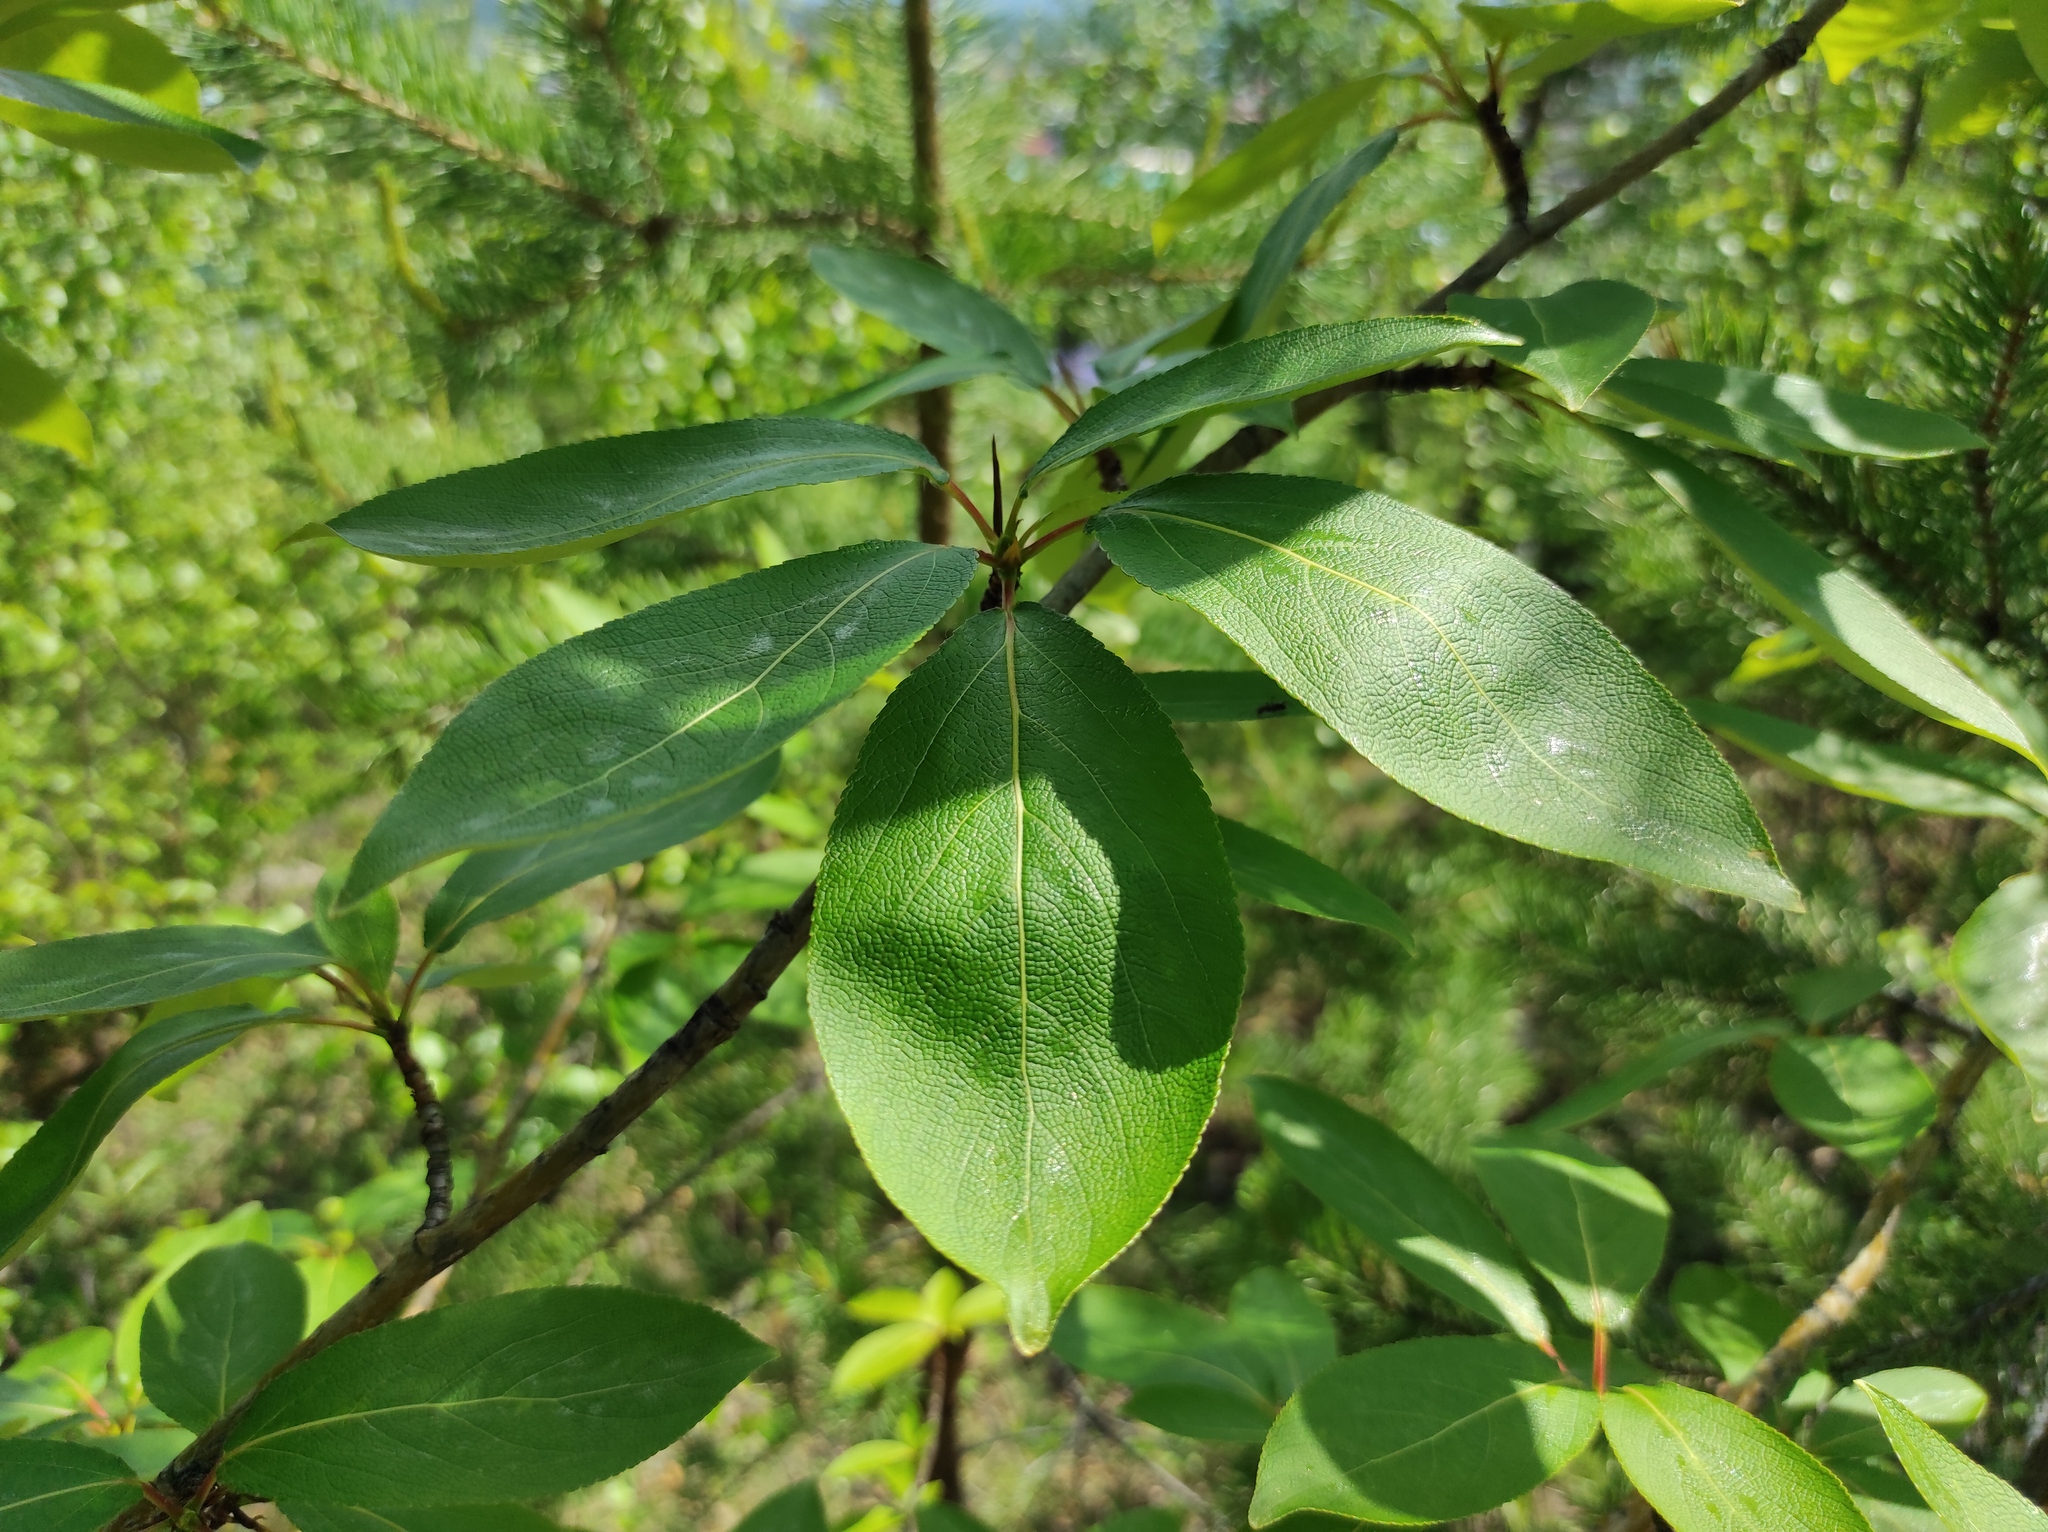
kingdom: Plantae
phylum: Tracheophyta
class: Magnoliopsida
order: Malpighiales
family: Salicaceae
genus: Populus
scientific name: Populus suaveolens
